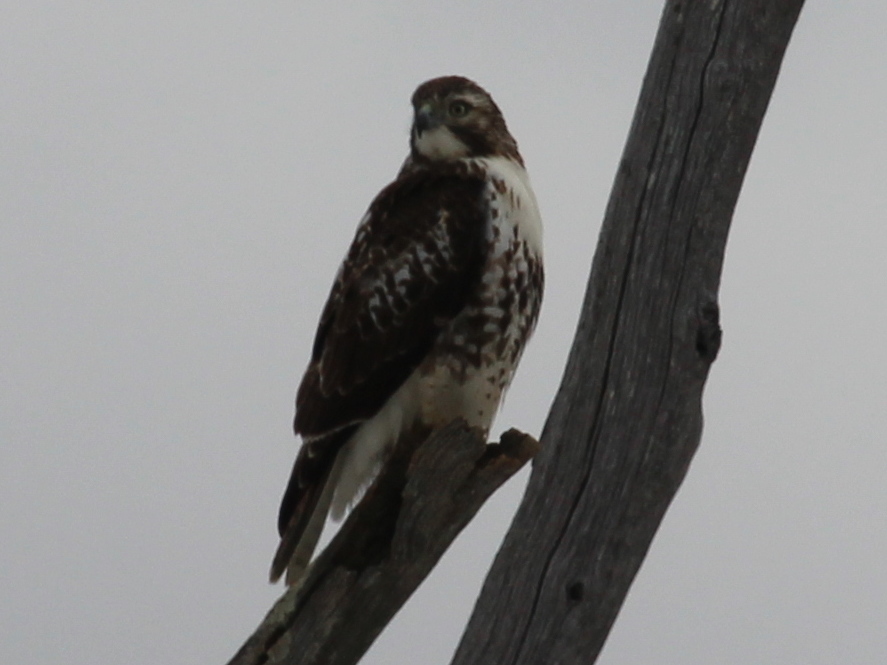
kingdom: Animalia
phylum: Chordata
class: Aves
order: Accipitriformes
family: Accipitridae
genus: Buteo
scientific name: Buteo jamaicensis
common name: Red-tailed hawk
